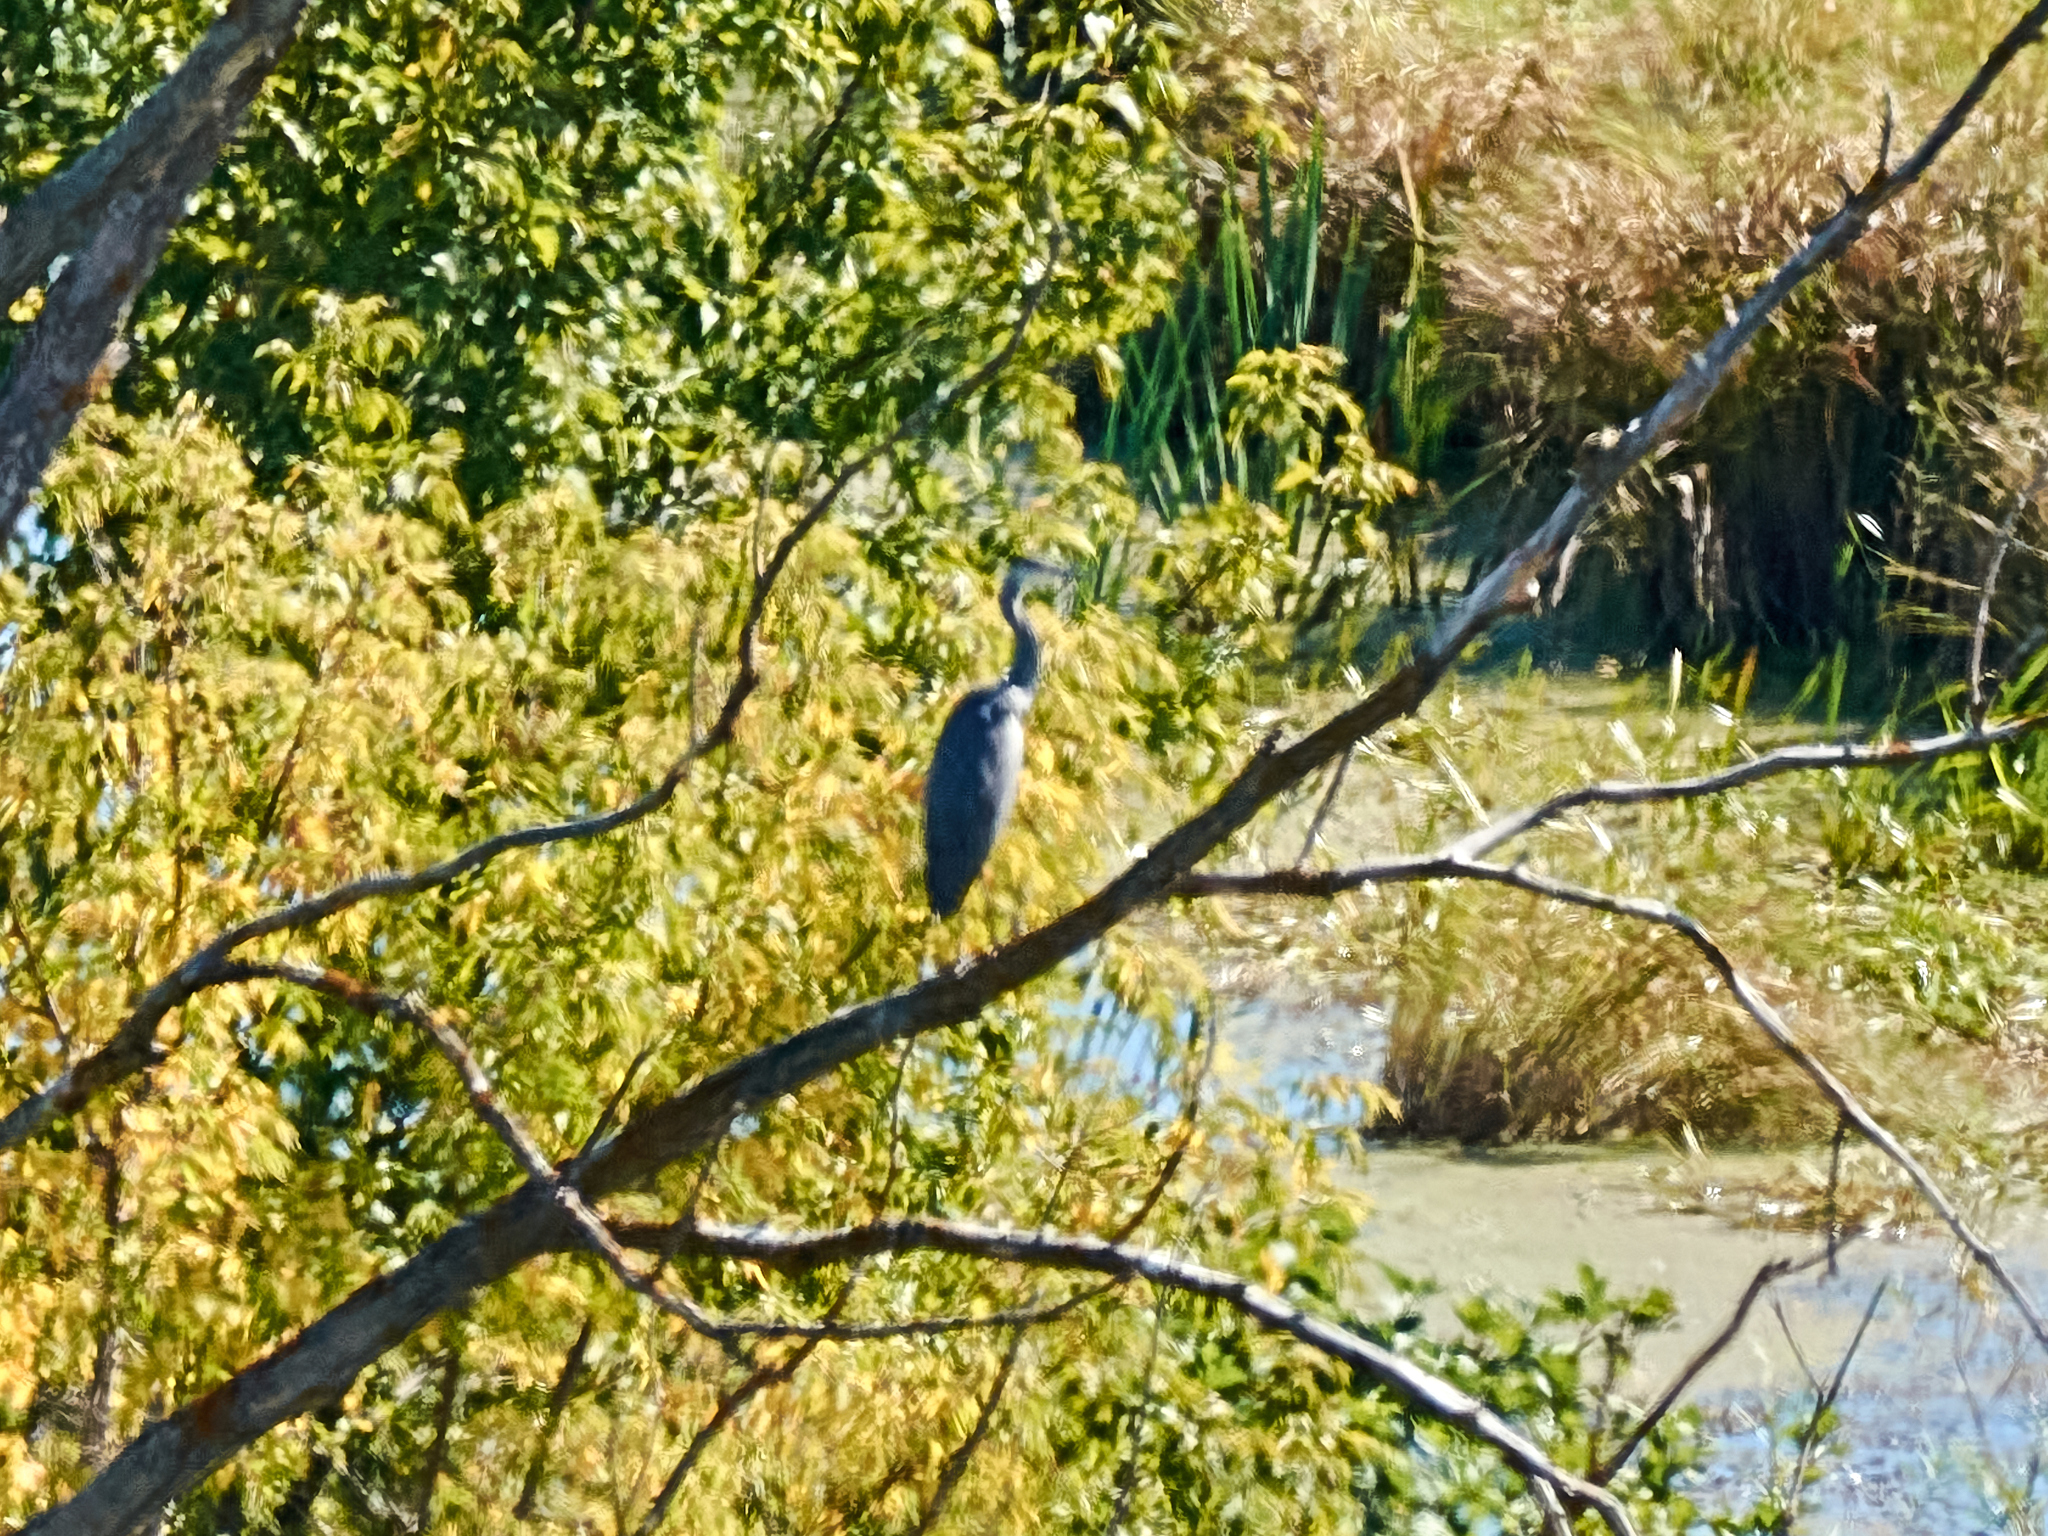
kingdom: Animalia
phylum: Chordata
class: Aves
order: Pelecaniformes
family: Ardeidae
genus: Ardea
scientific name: Ardea cinerea
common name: Grey heron
